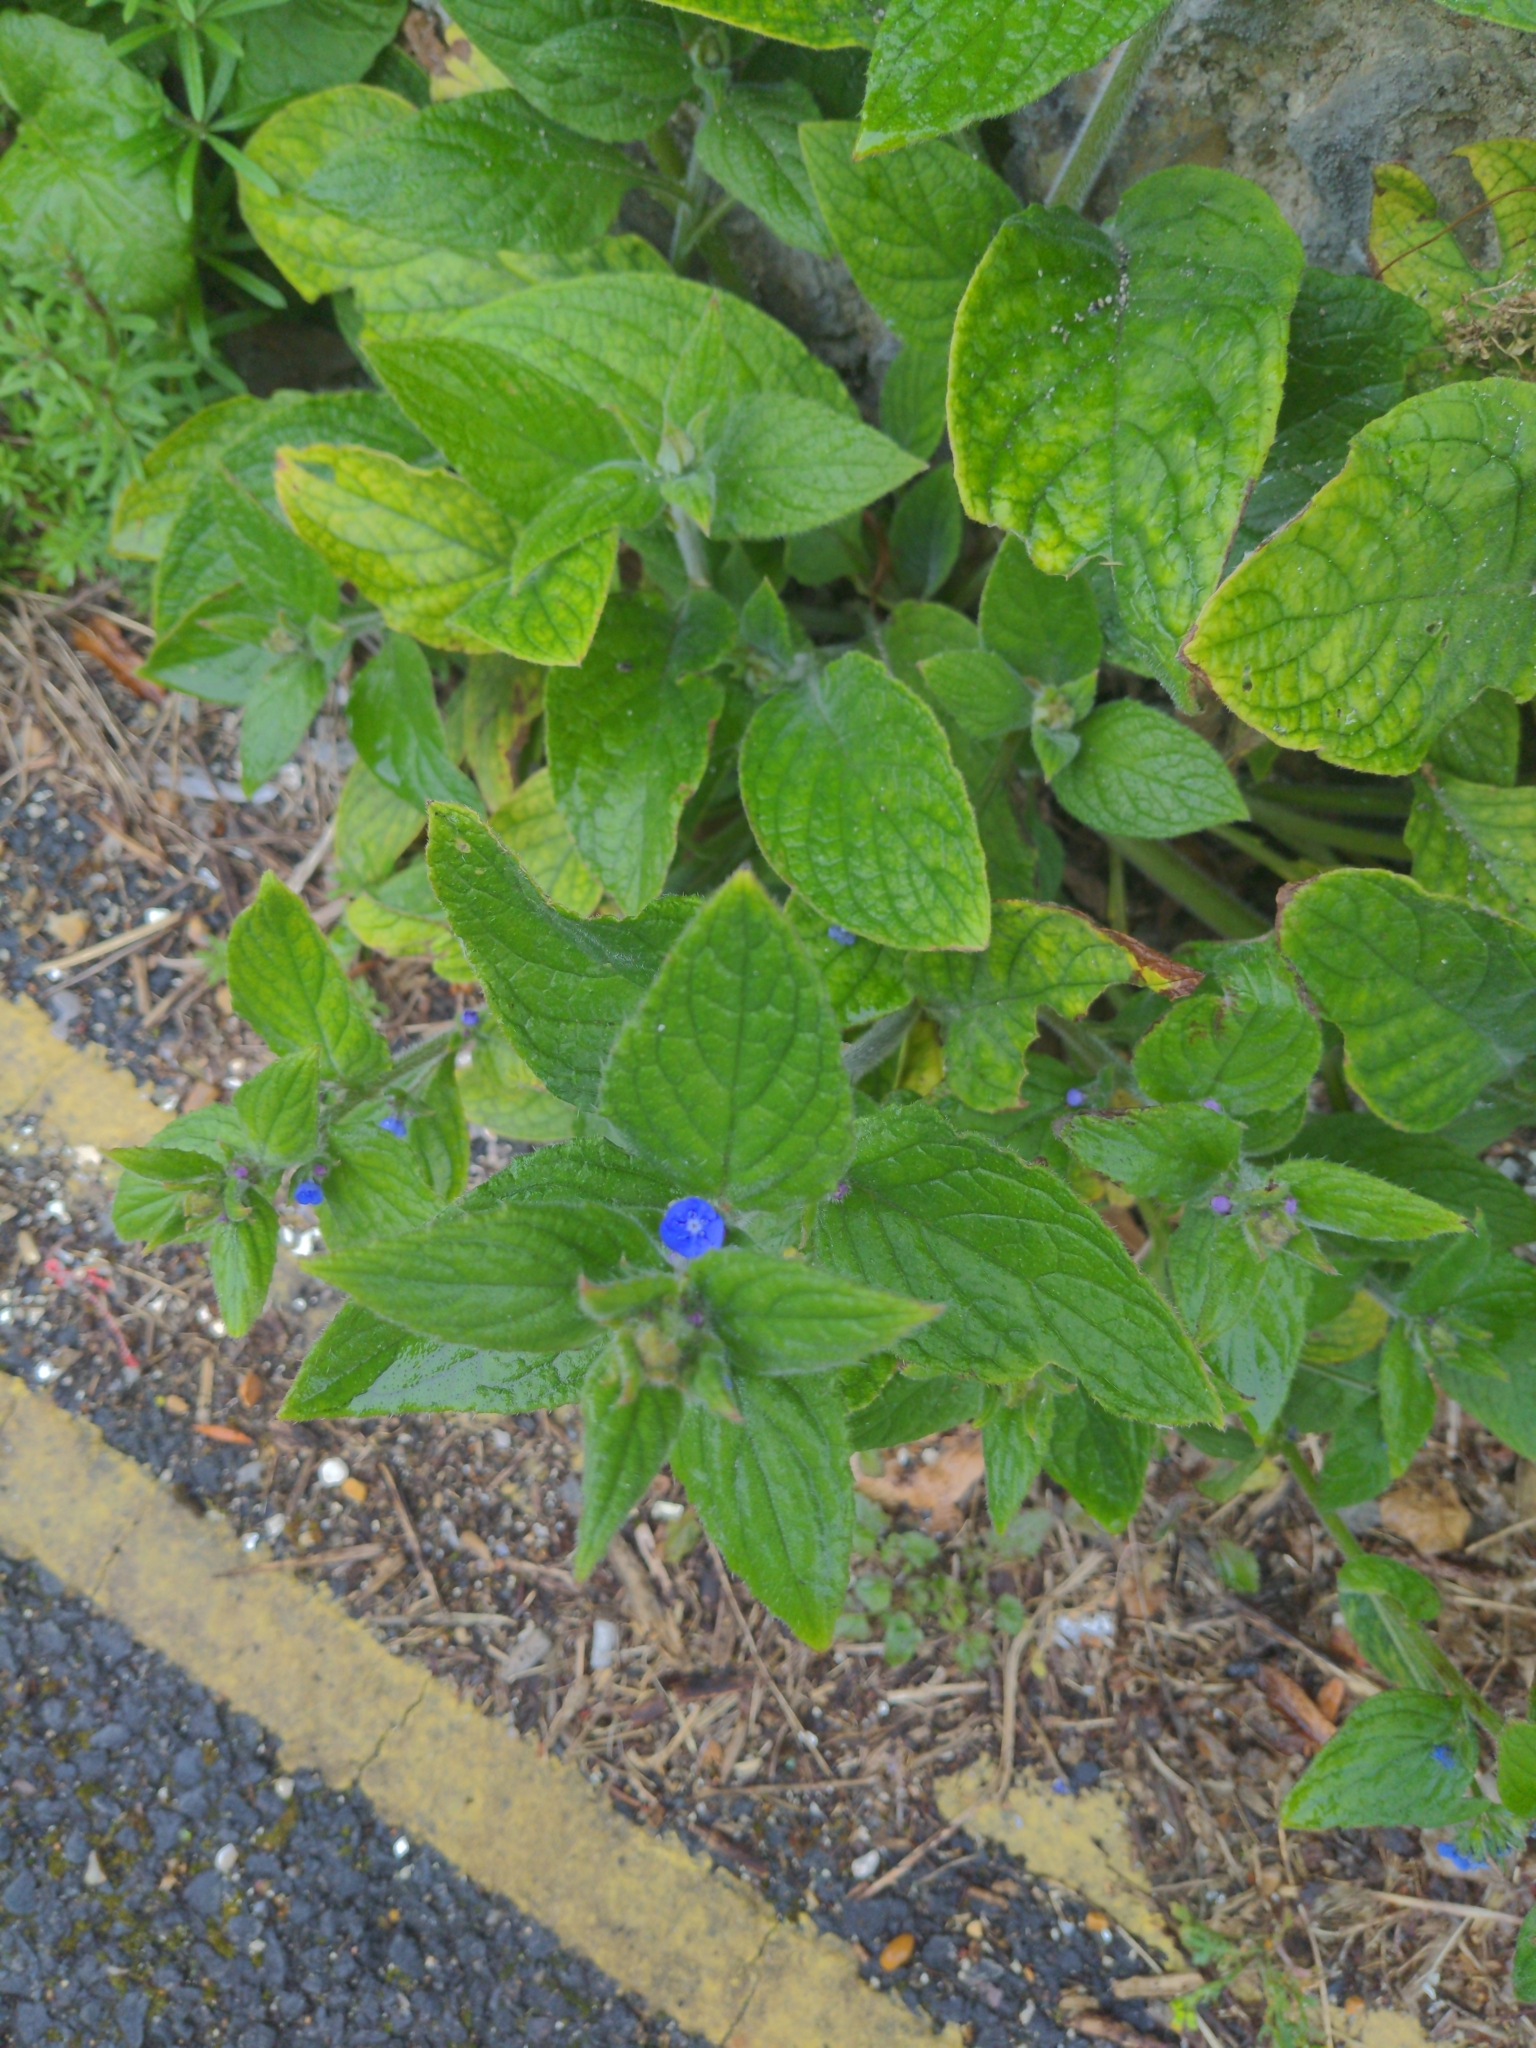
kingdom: Plantae
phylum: Tracheophyta
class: Magnoliopsida
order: Boraginales
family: Boraginaceae
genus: Pentaglottis
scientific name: Pentaglottis sempervirens
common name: Green alkanet
